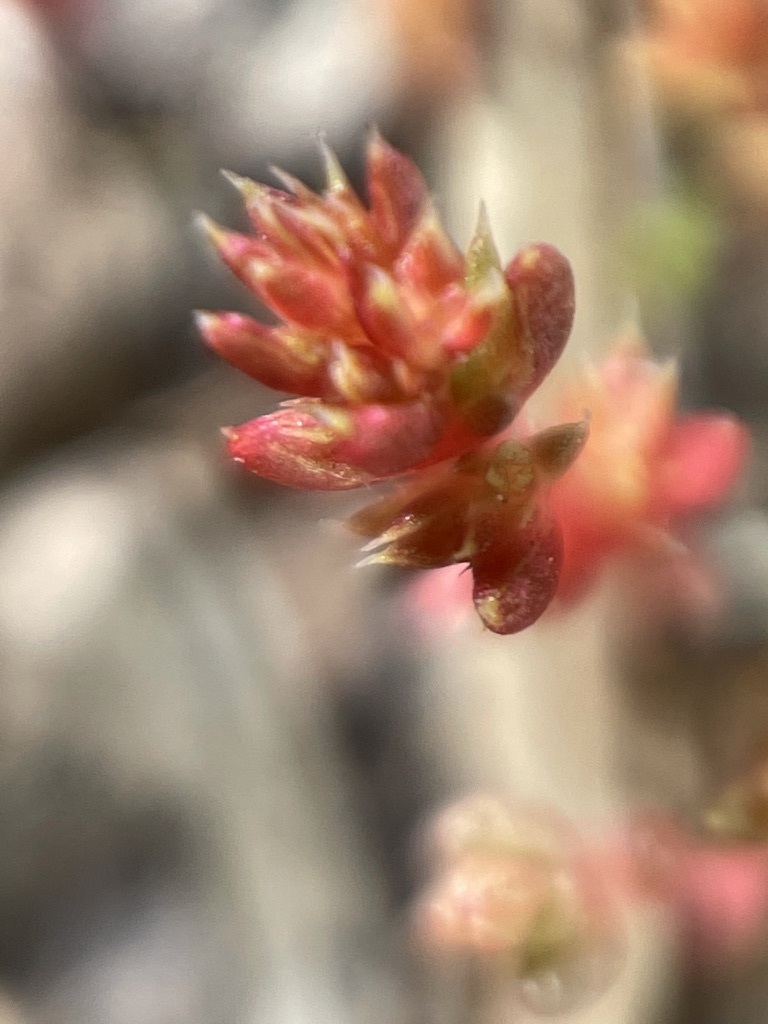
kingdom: Plantae
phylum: Tracheophyta
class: Magnoliopsida
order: Saxifragales
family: Crassulaceae
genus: Crassula
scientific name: Crassula tillaea
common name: Mossy stonecrop
